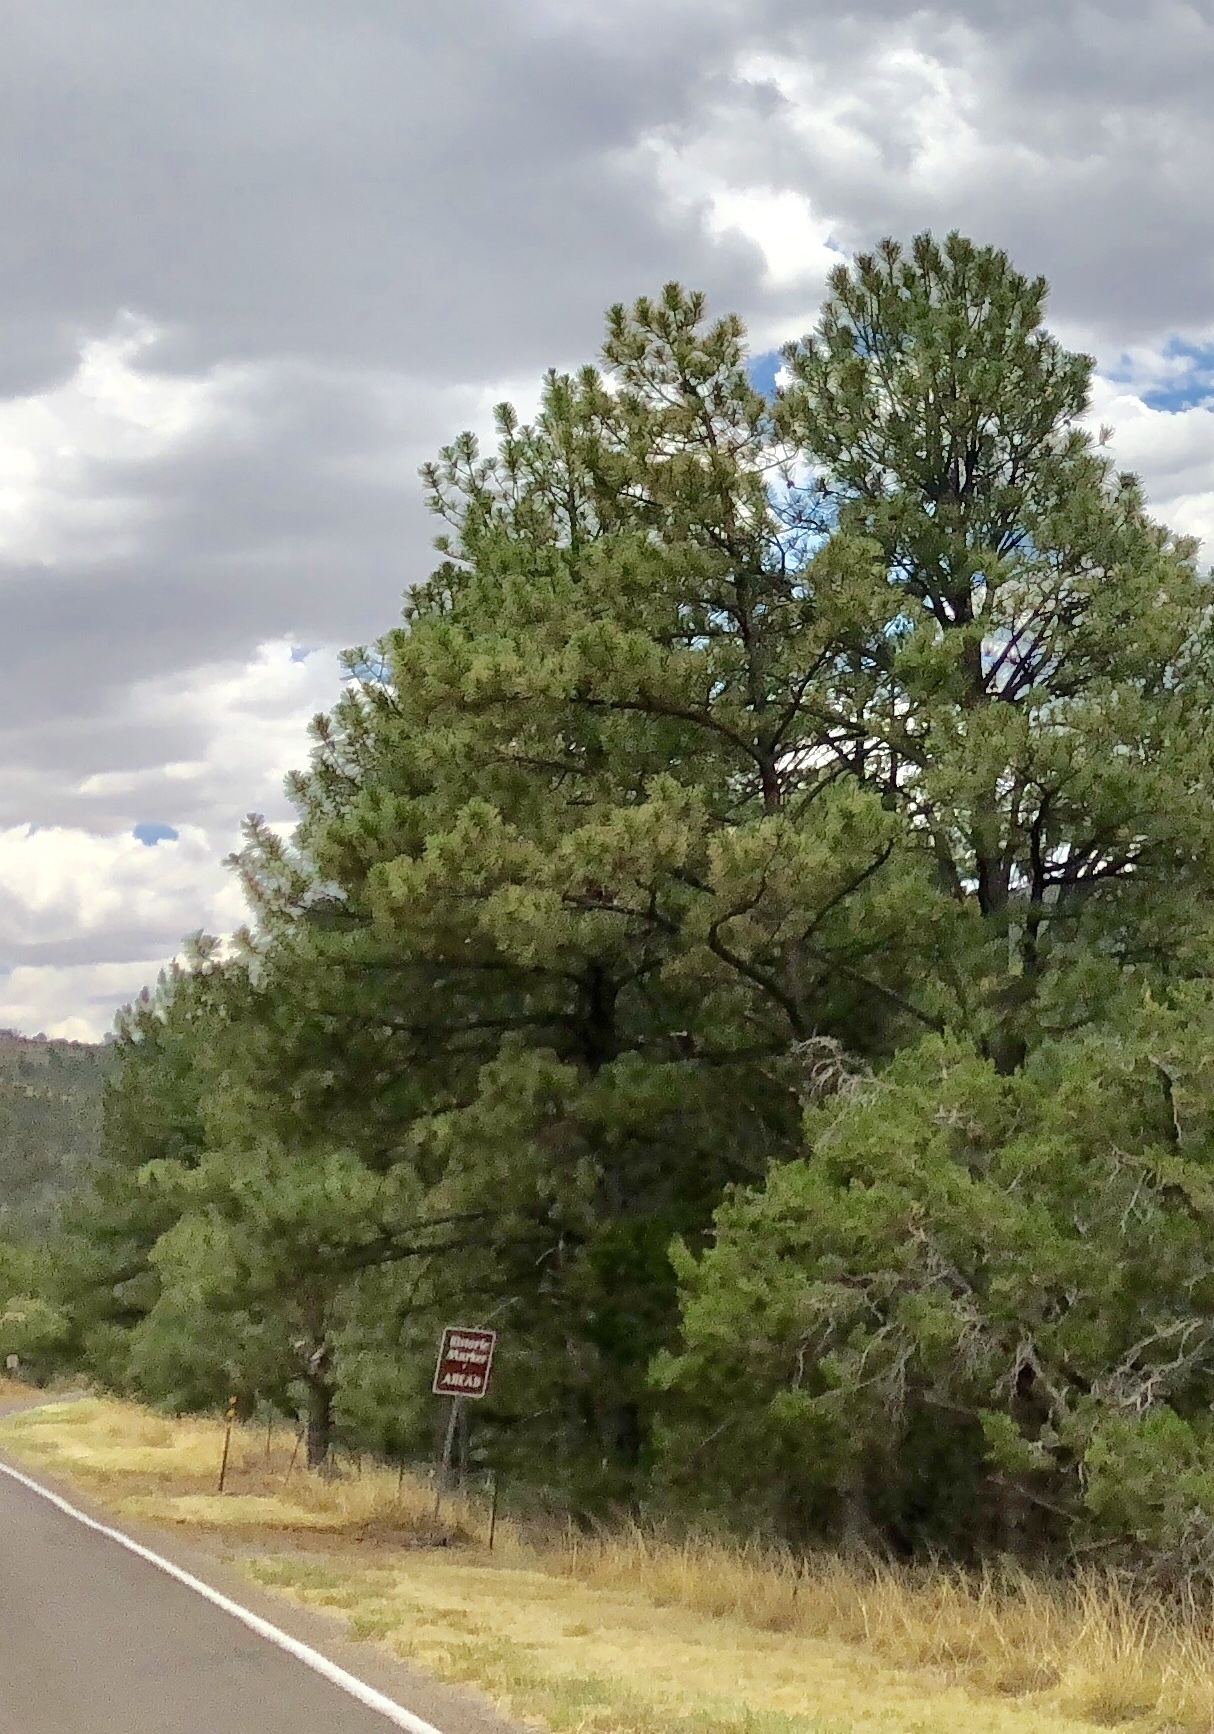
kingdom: Plantae
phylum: Tracheophyta
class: Pinopsida
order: Pinales
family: Pinaceae
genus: Pinus
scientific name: Pinus ponderosa
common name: Western yellow-pine
